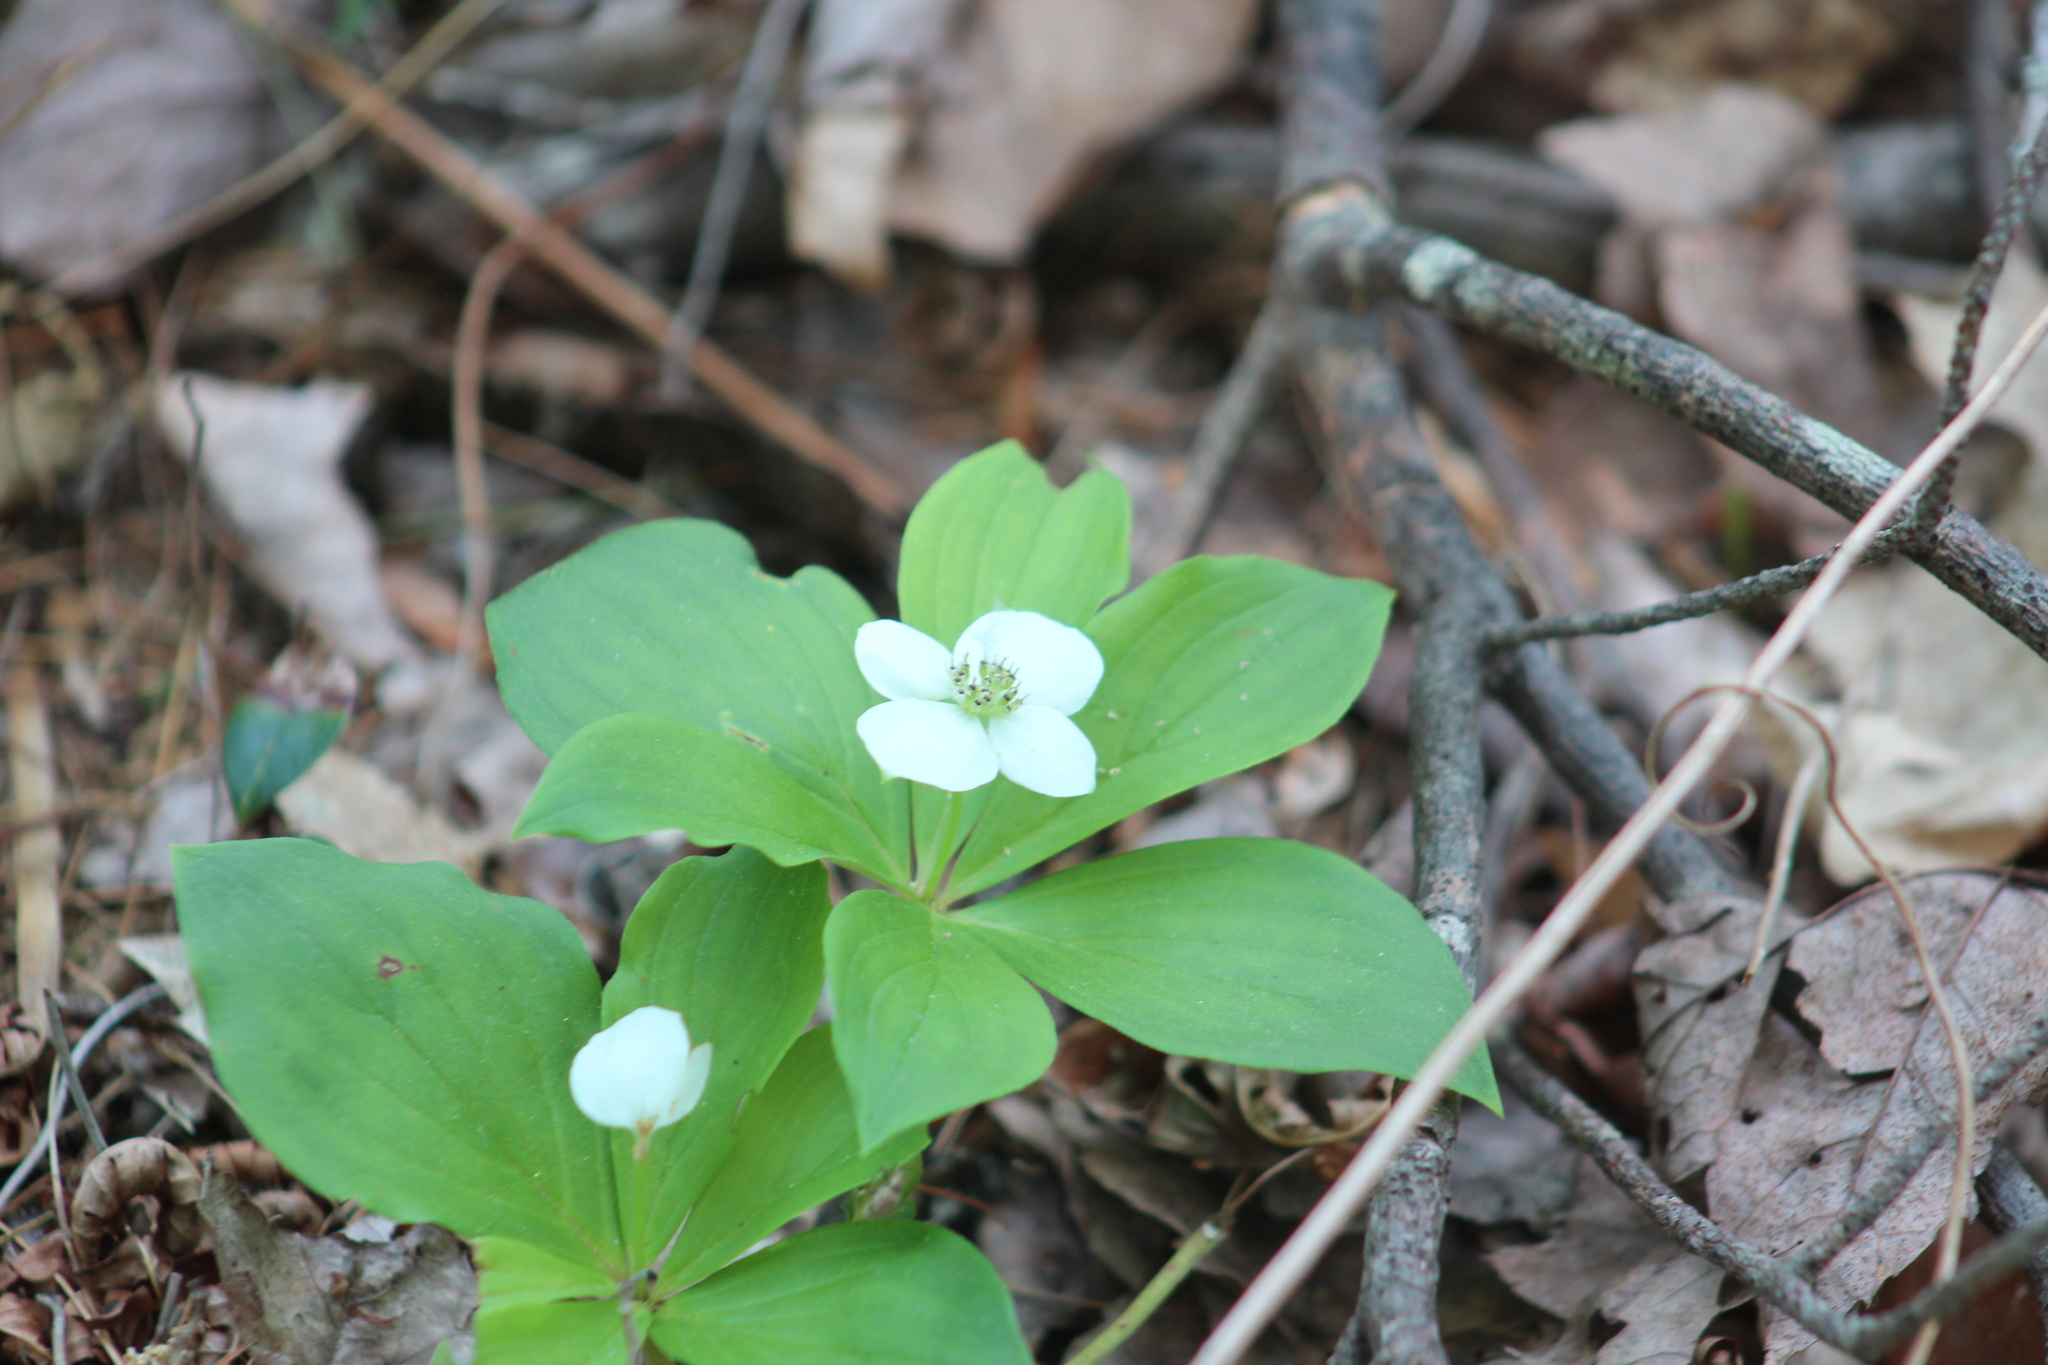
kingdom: Plantae
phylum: Tracheophyta
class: Magnoliopsida
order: Cornales
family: Cornaceae
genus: Cornus
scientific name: Cornus canadensis
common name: Creeping dogwood
